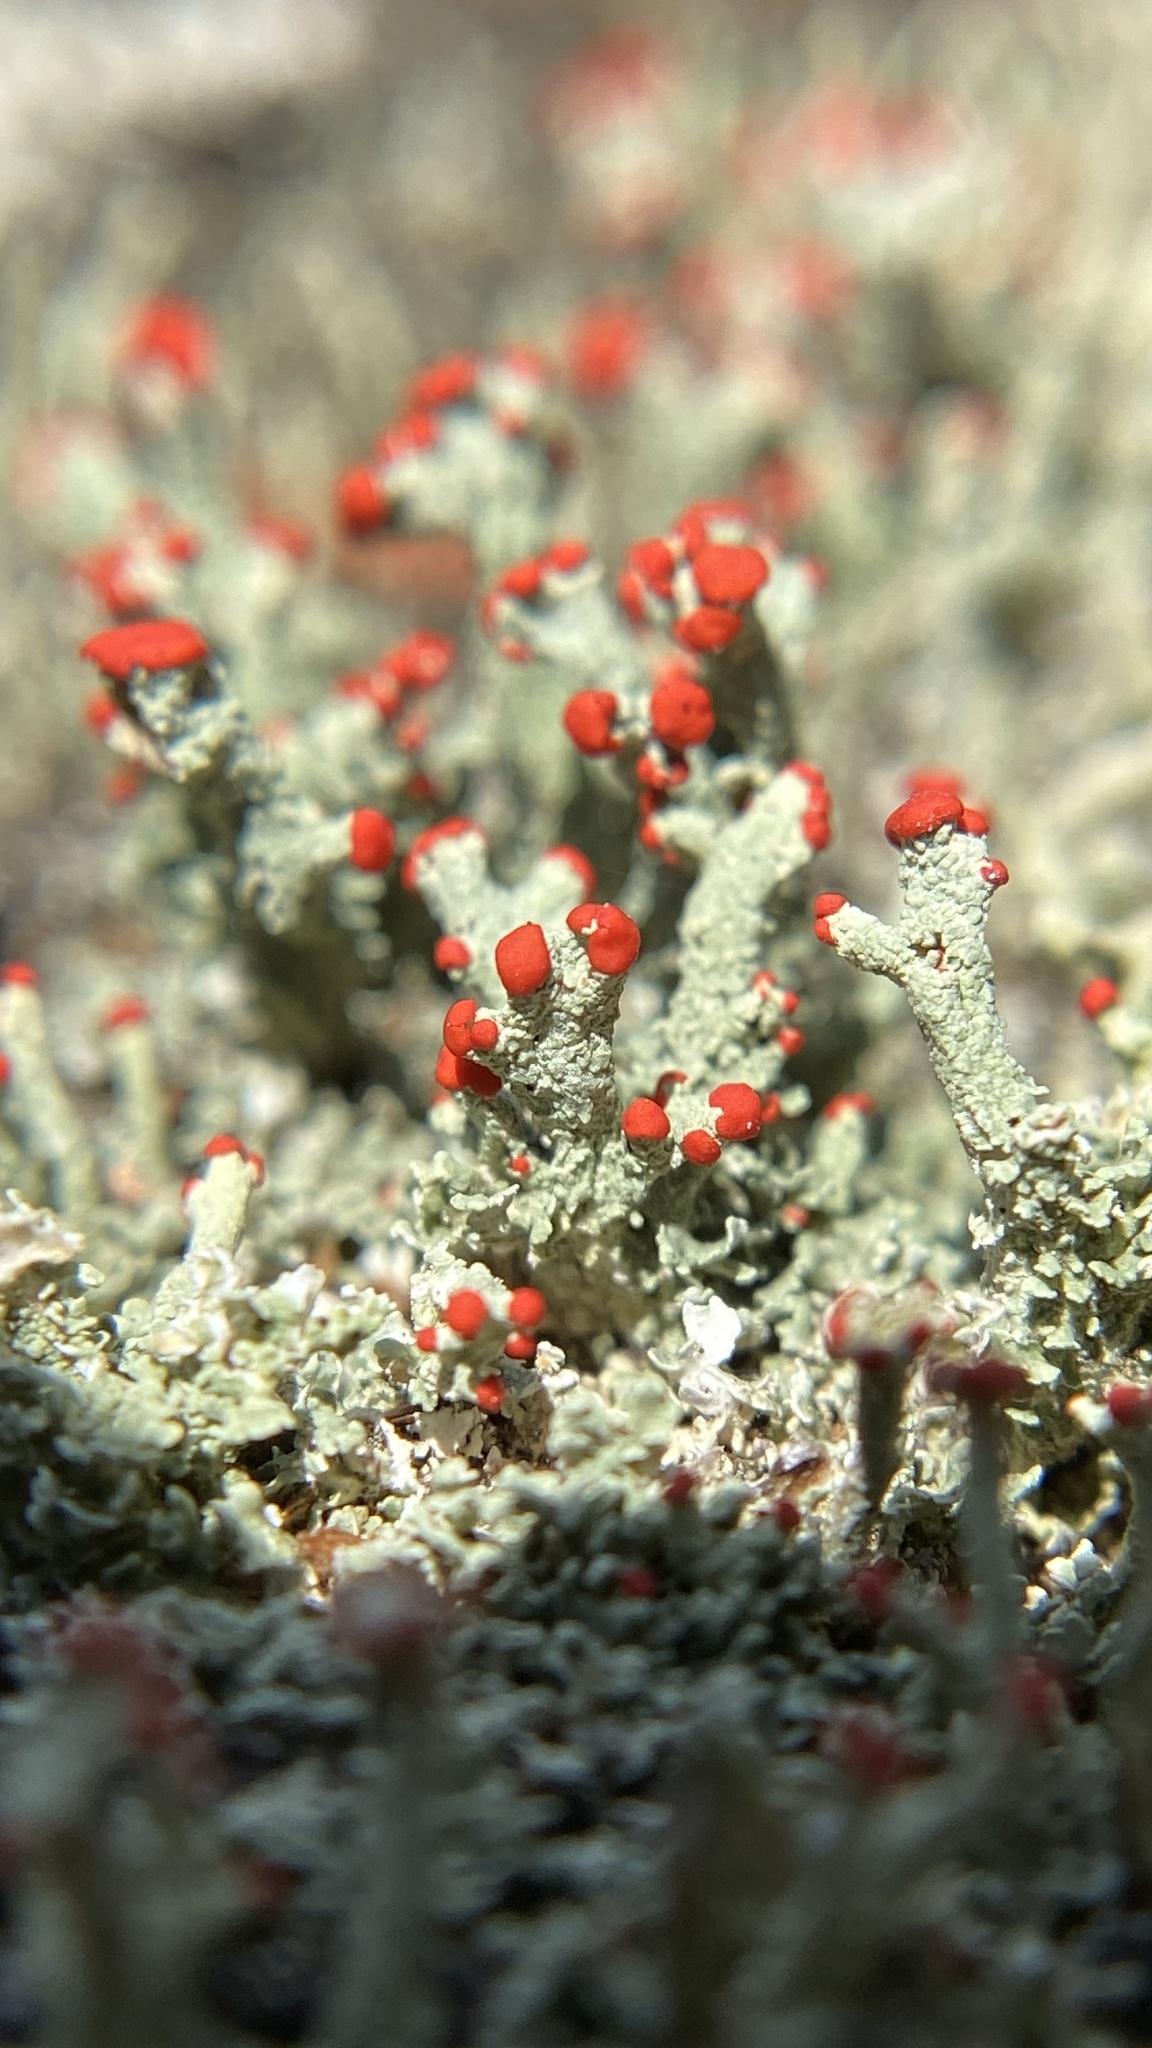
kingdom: Fungi
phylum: Ascomycota
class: Lecanoromycetes
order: Lecanorales
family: Cladoniaceae
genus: Cladonia
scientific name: Cladonia cristatella
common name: British soldier lichen
